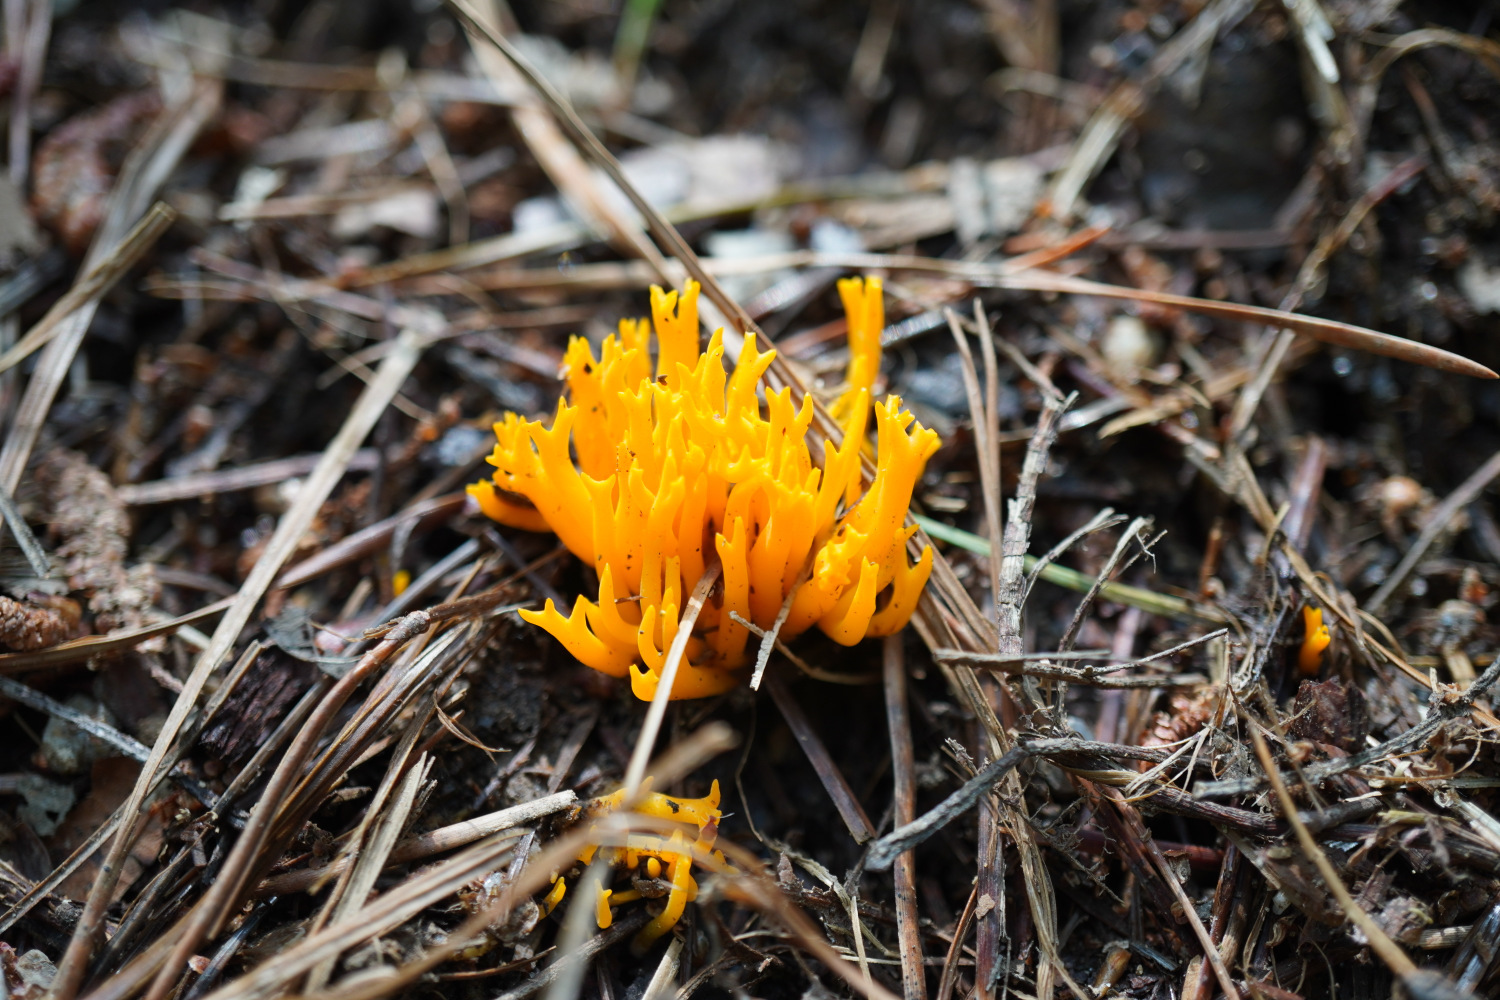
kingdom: Fungi
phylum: Basidiomycota
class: Dacrymycetes
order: Dacrymycetales
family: Dacrymycetaceae
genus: Dacrymyces
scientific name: Dacrymyces spathularius
